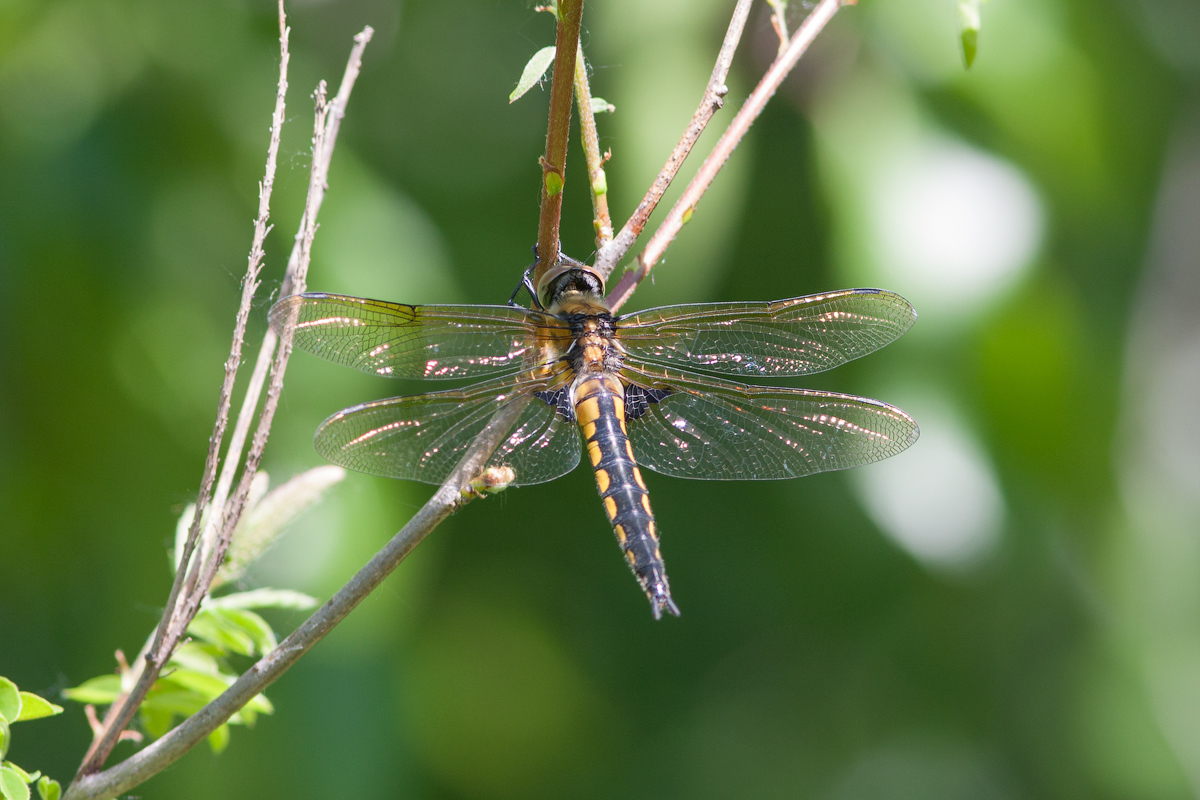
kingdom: Animalia
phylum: Arthropoda
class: Insecta
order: Odonata
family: Corduliidae
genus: Epitheca
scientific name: Epitheca bimaculata
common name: Eurasian baskettail
